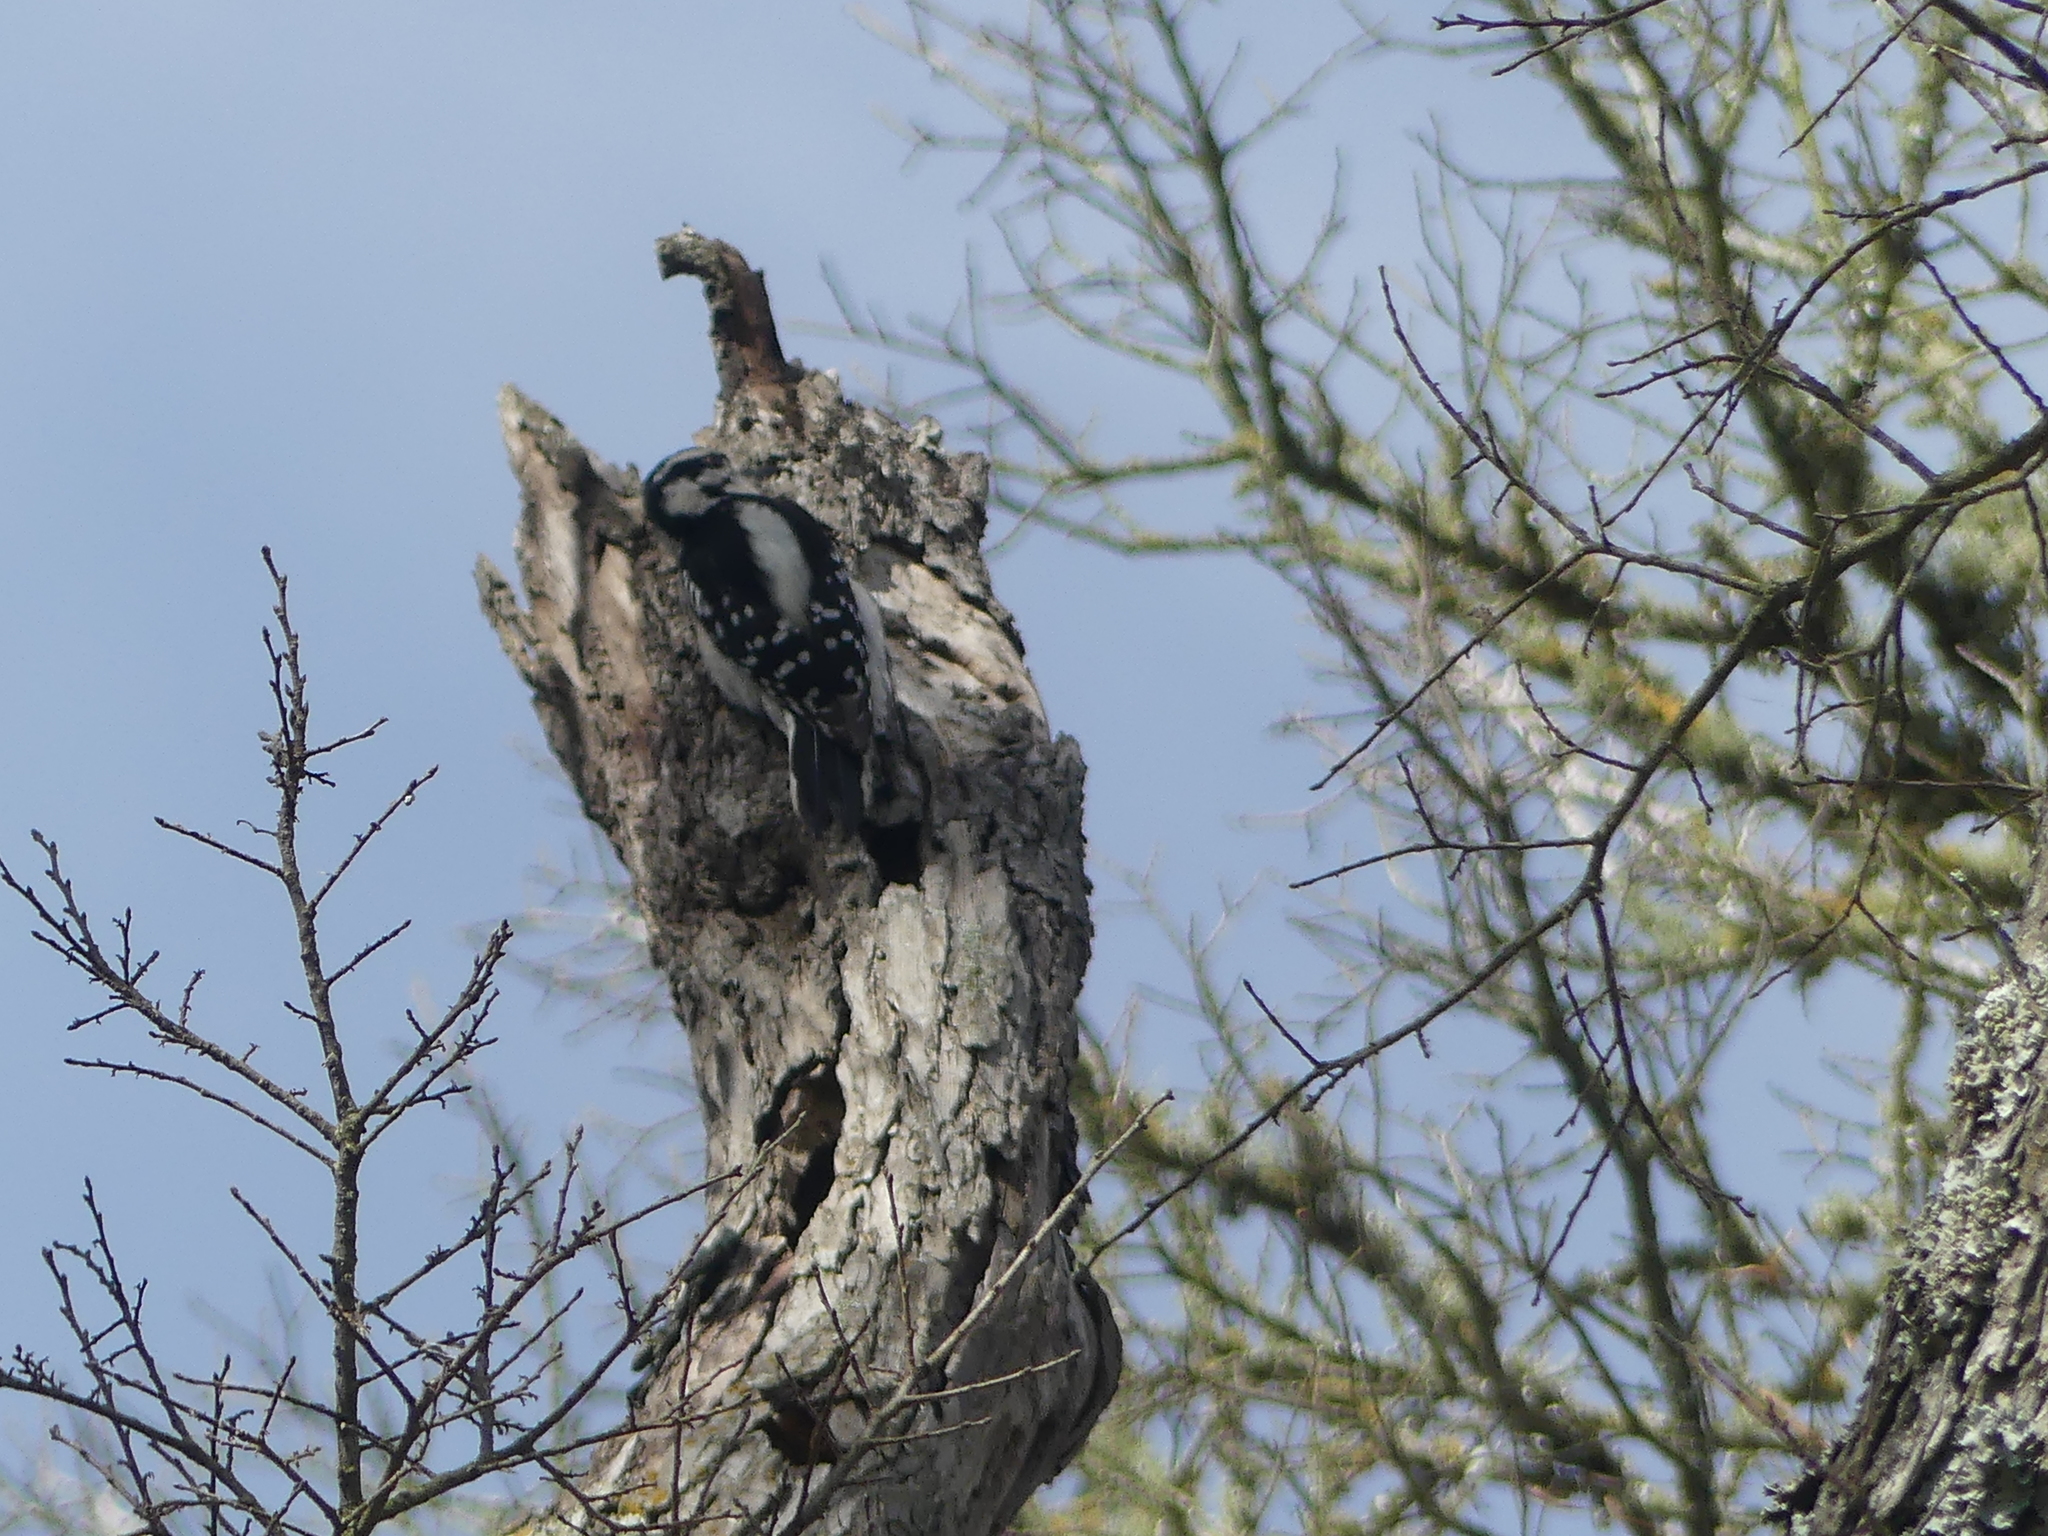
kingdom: Animalia
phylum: Chordata
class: Aves
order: Piciformes
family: Picidae
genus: Dryobates
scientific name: Dryobates pubescens
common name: Downy woodpecker
